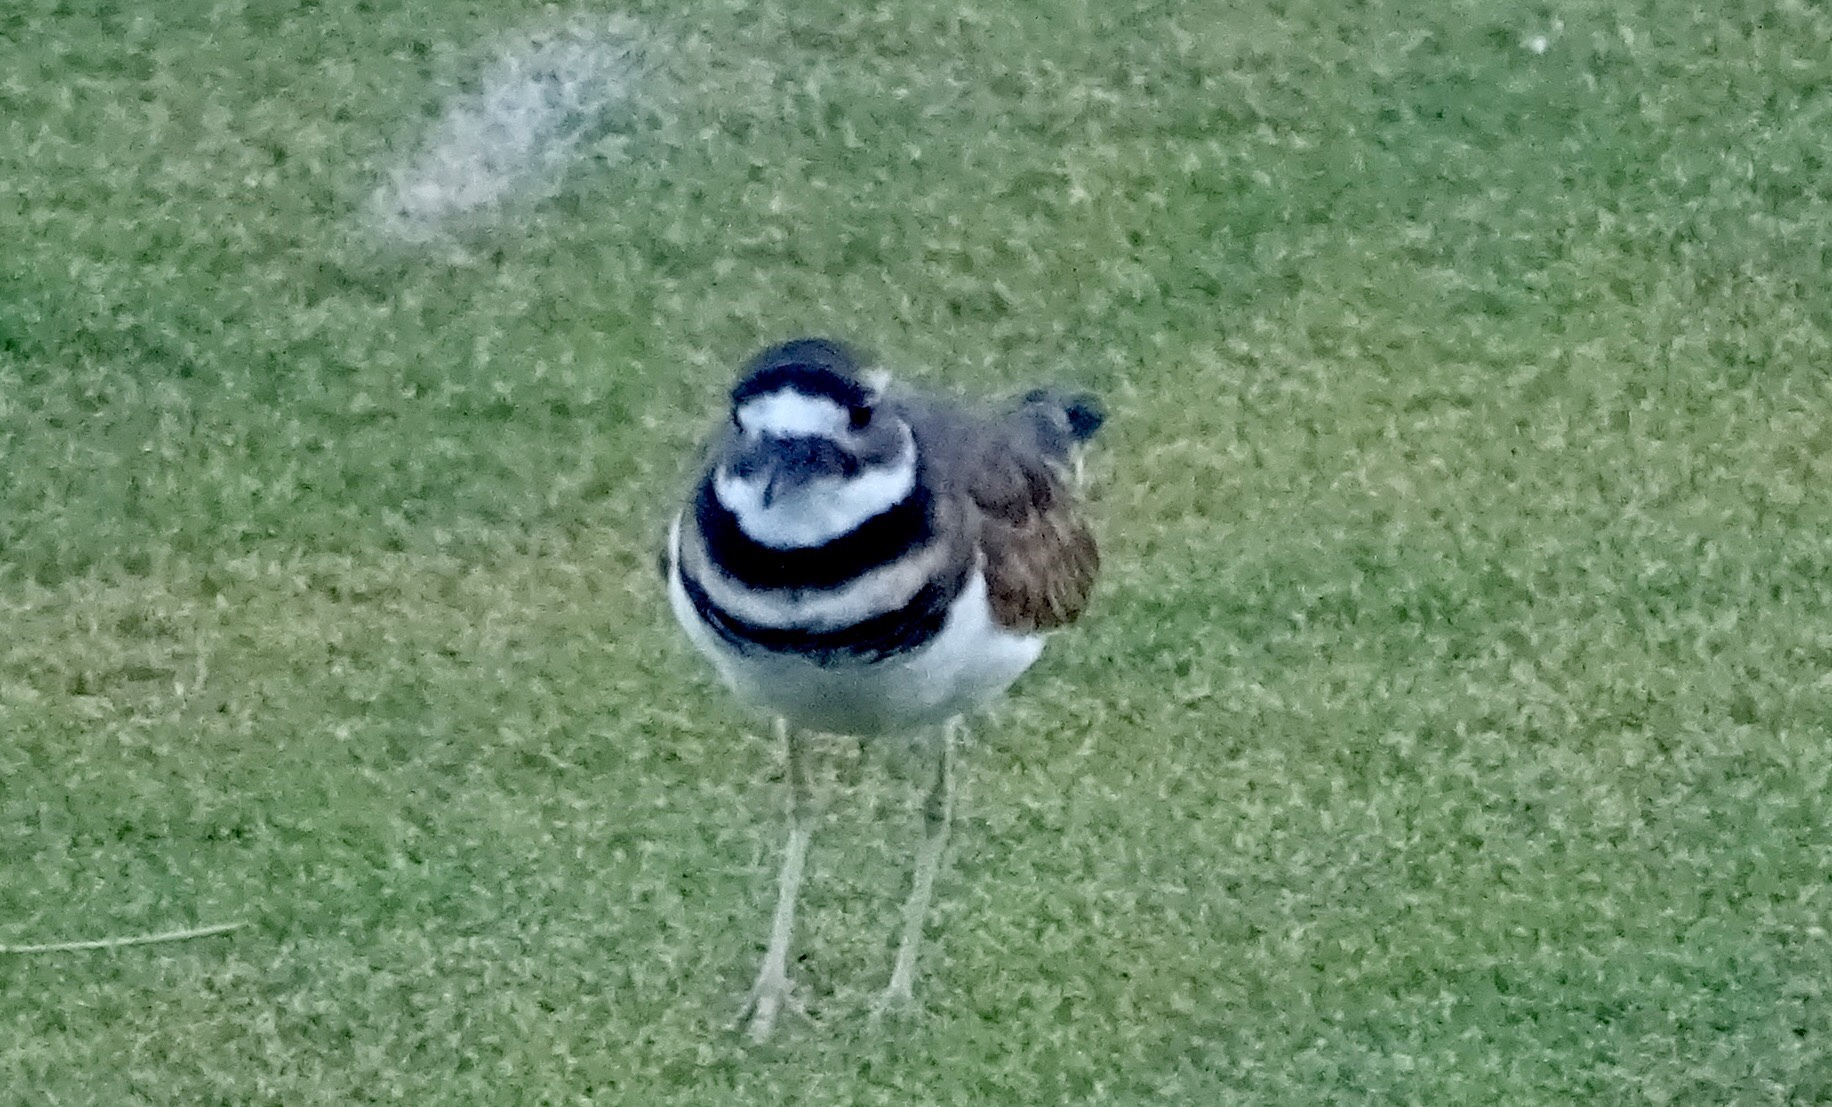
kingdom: Animalia
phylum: Chordata
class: Aves
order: Charadriiformes
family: Charadriidae
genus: Charadrius
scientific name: Charadrius vociferus
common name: Killdeer
